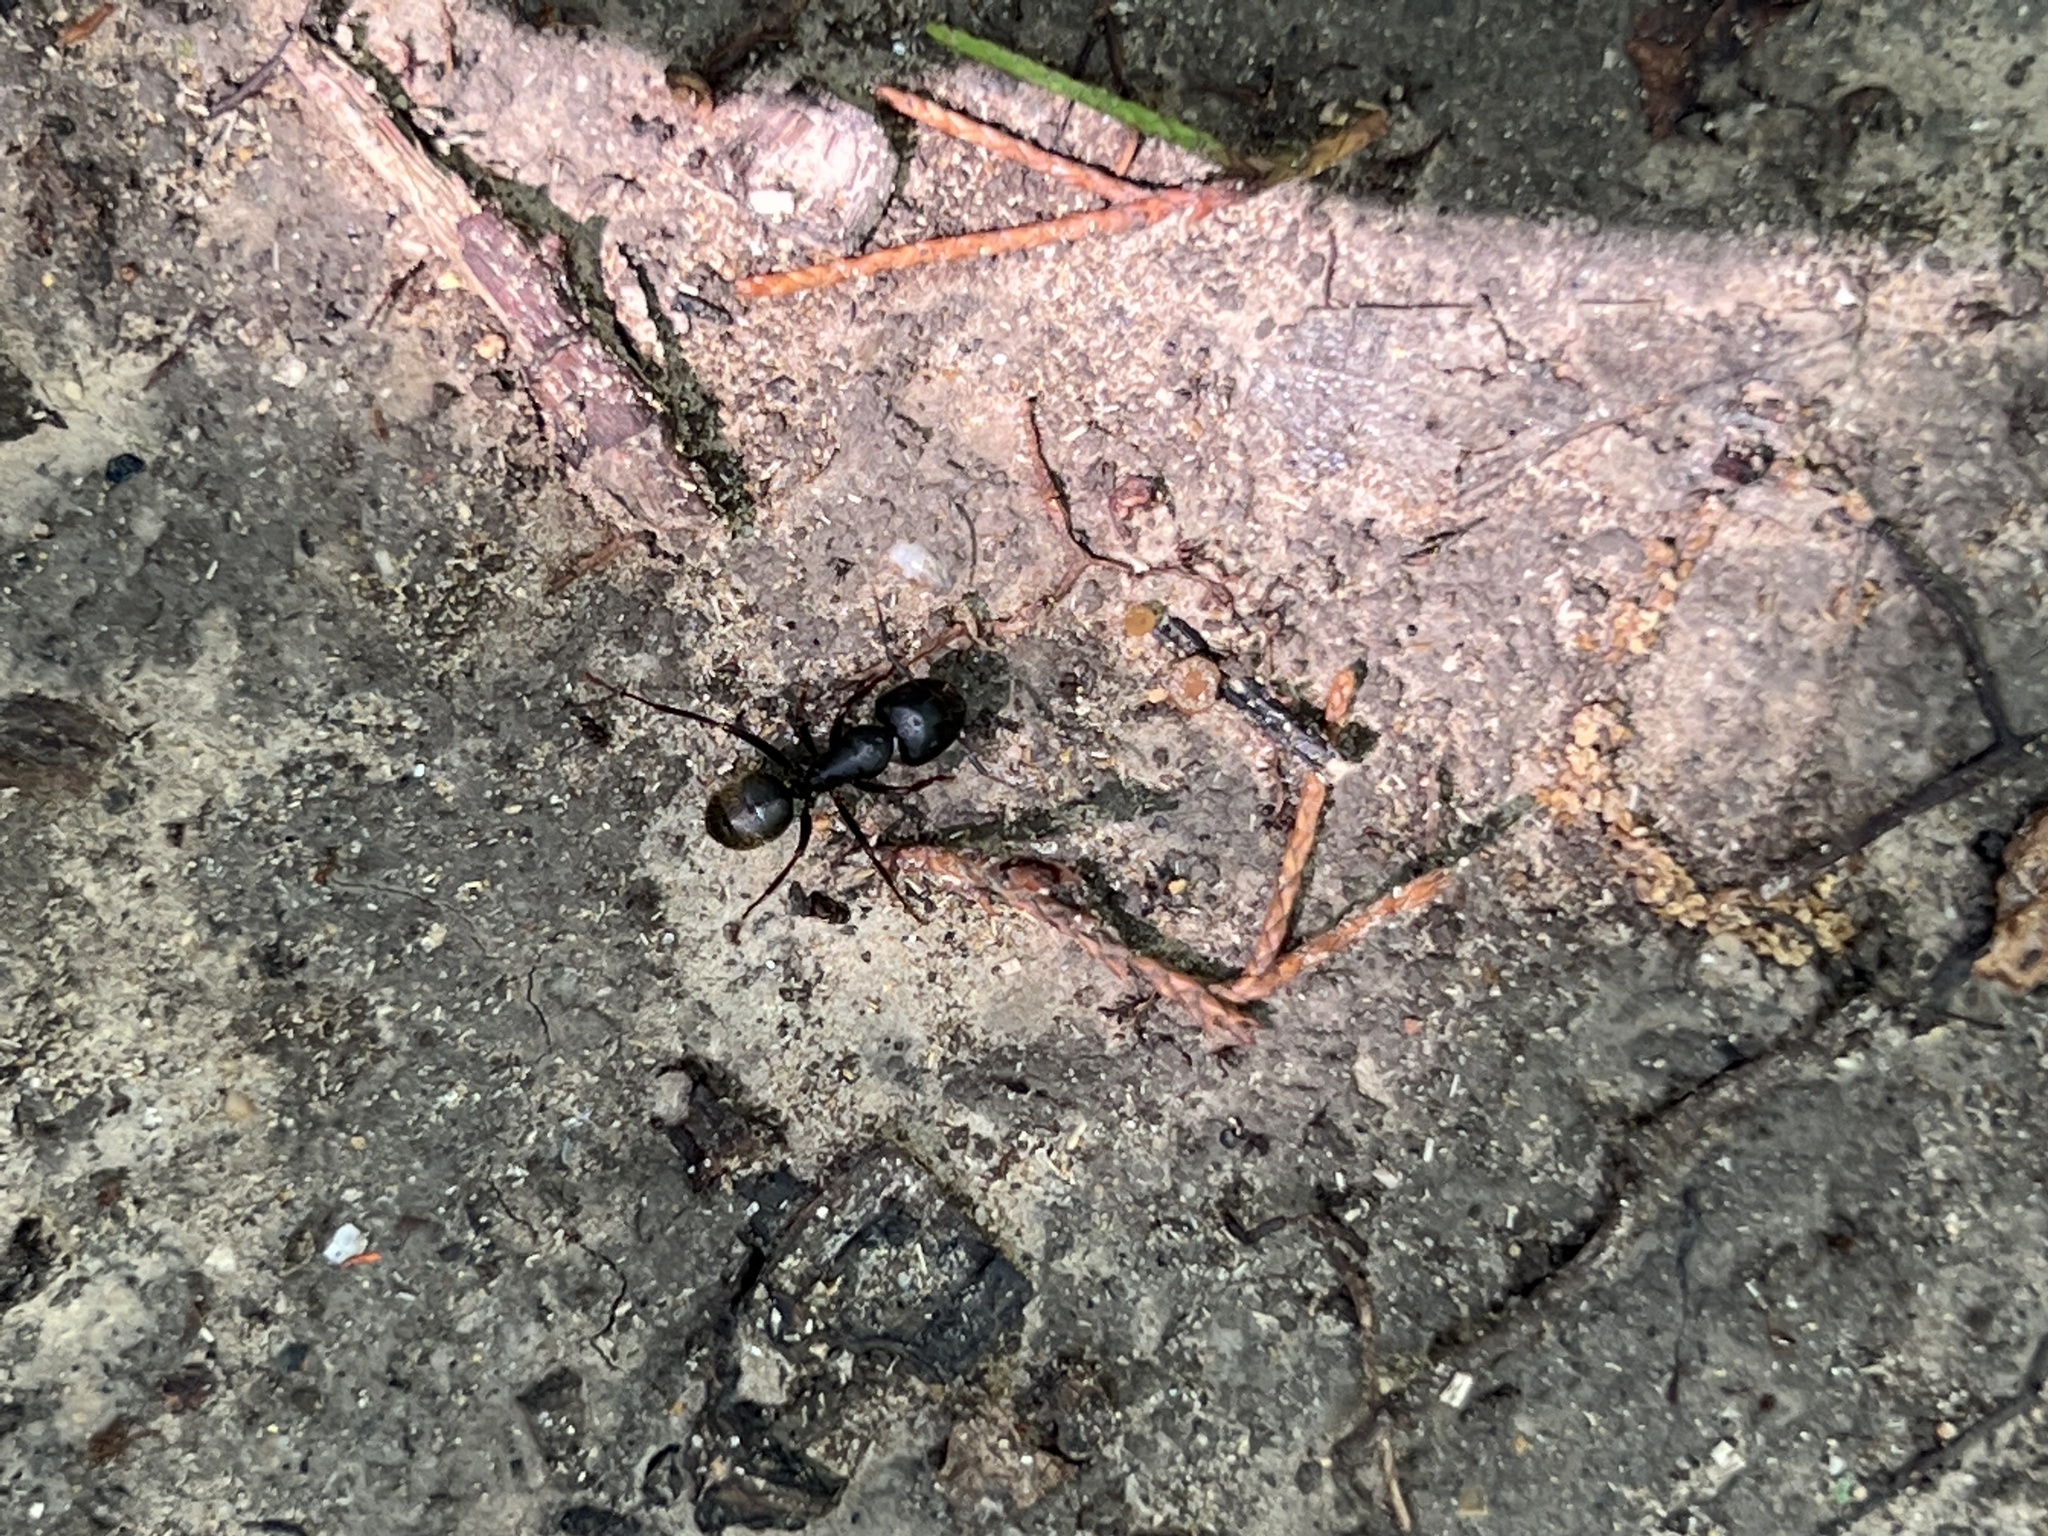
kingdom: Animalia
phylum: Arthropoda
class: Insecta
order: Hymenoptera
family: Formicidae
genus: Camponotus
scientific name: Camponotus pennsylvanicus
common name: Black carpenter ant
